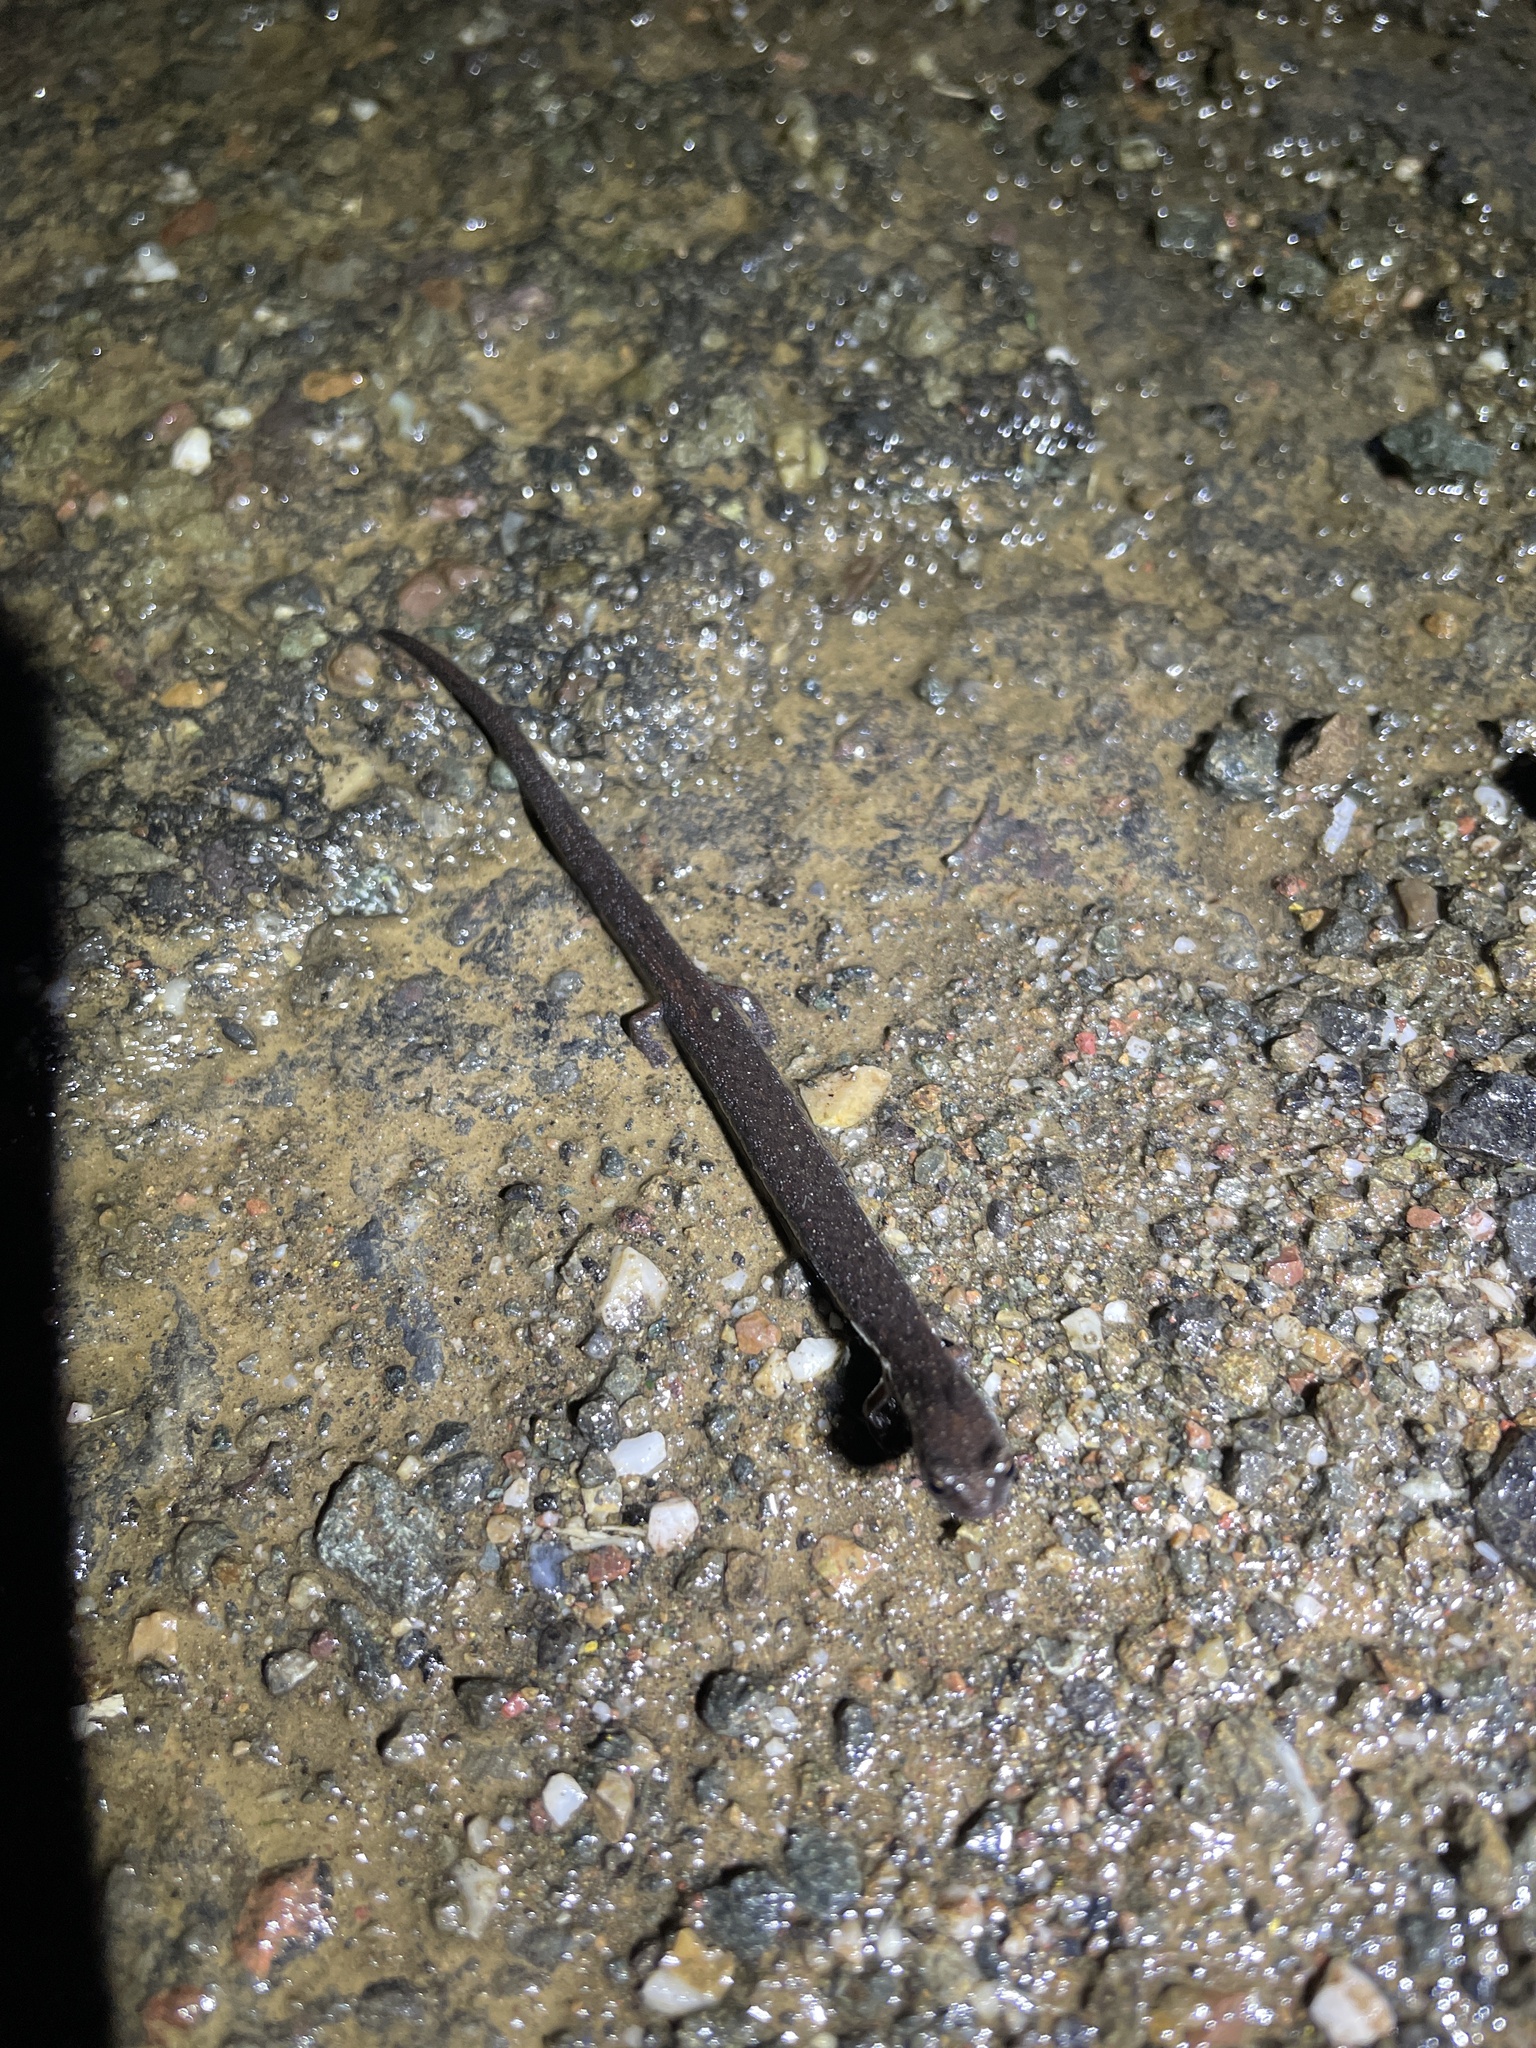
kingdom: Animalia
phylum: Chordata
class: Amphibia
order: Caudata
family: Plethodontidae
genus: Batrachoseps
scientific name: Batrachoseps attenuatus
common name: California slender salamander
